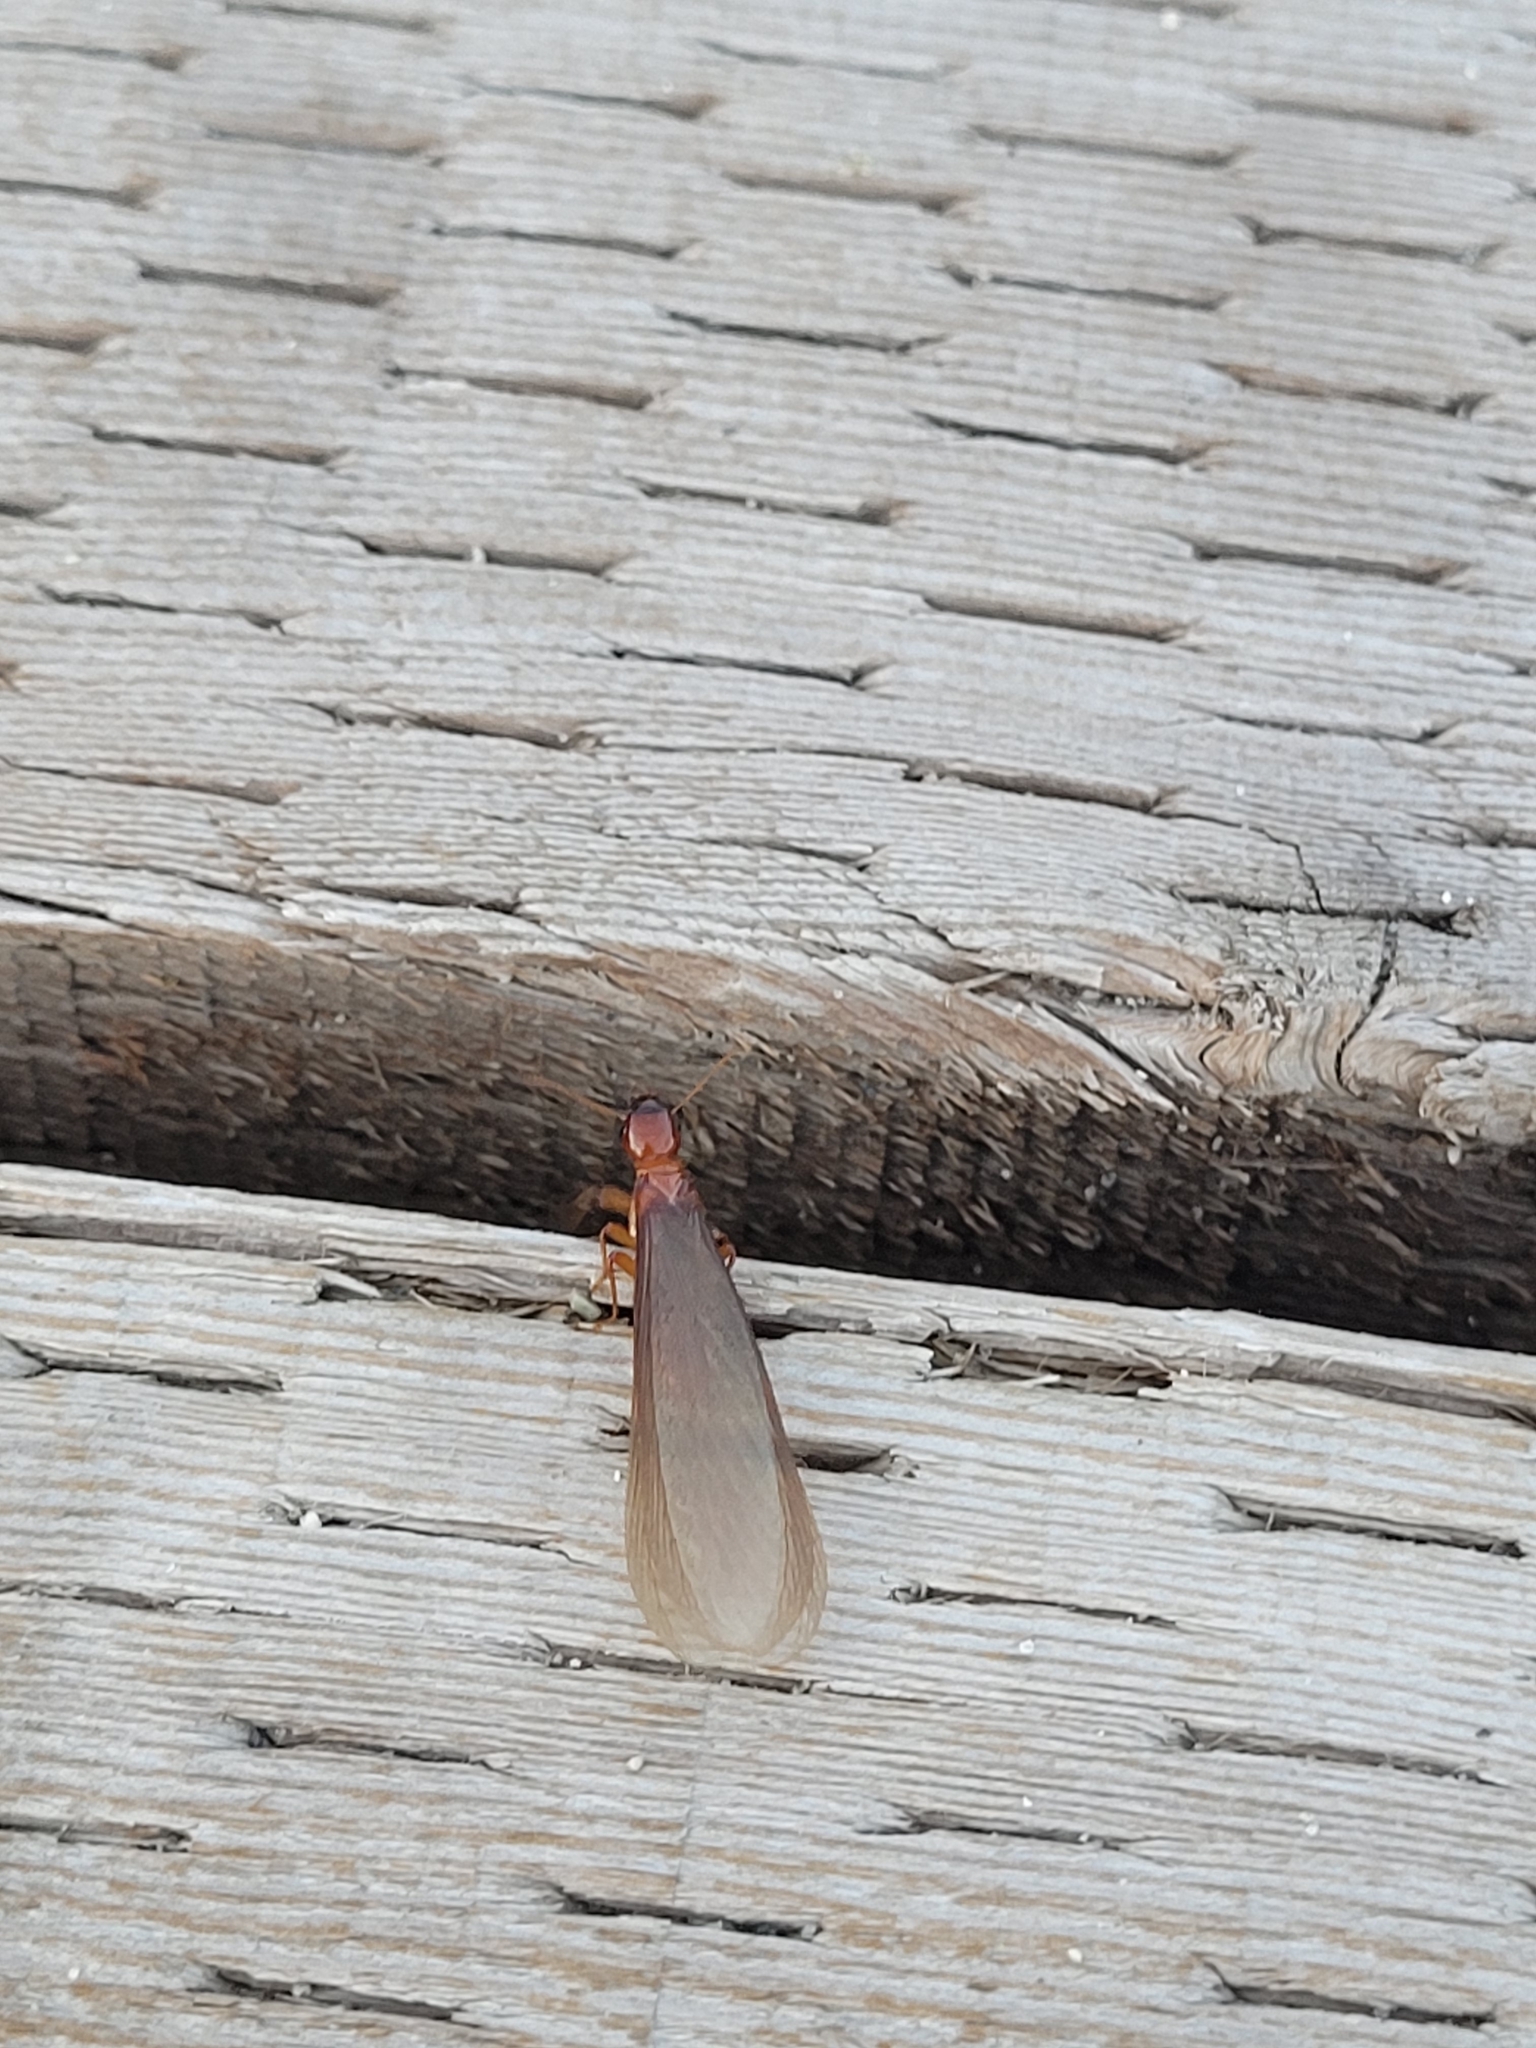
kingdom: Animalia
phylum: Arthropoda
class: Insecta
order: Blattodea
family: Archotermopsidae
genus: Zootermopsis
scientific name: Zootermopsis angusticollis
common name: Rottenwood termite
